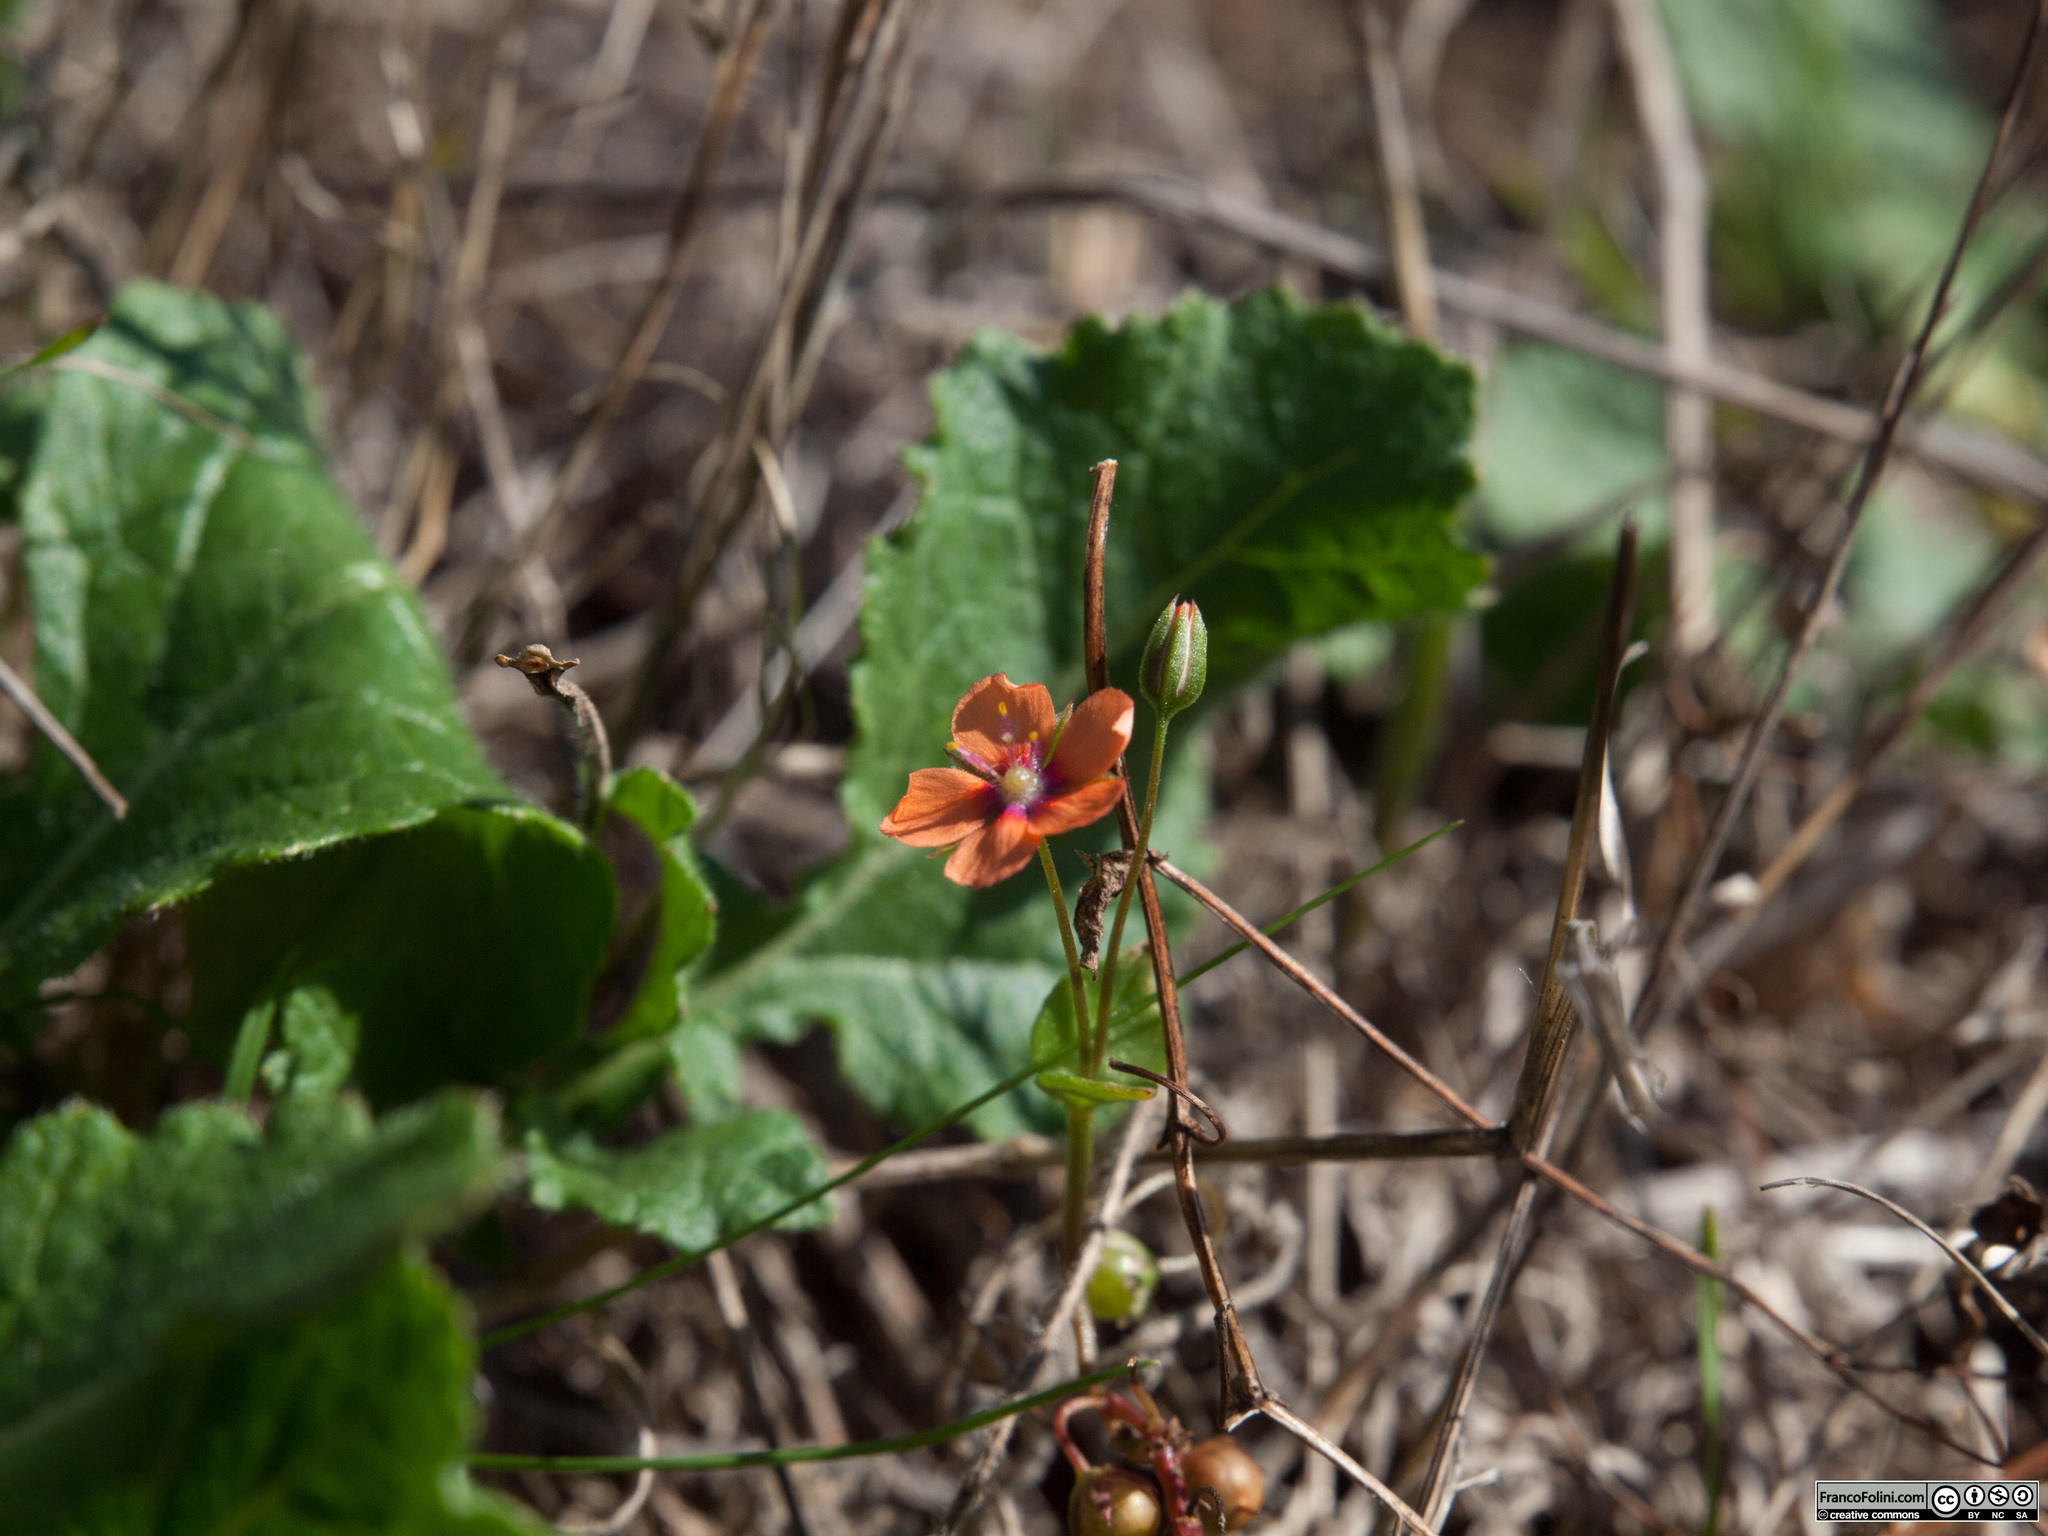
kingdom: Plantae
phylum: Tracheophyta
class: Magnoliopsida
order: Ericales
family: Primulaceae
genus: Lysimachia
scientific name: Lysimachia arvensis
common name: Scarlet pimpernel
